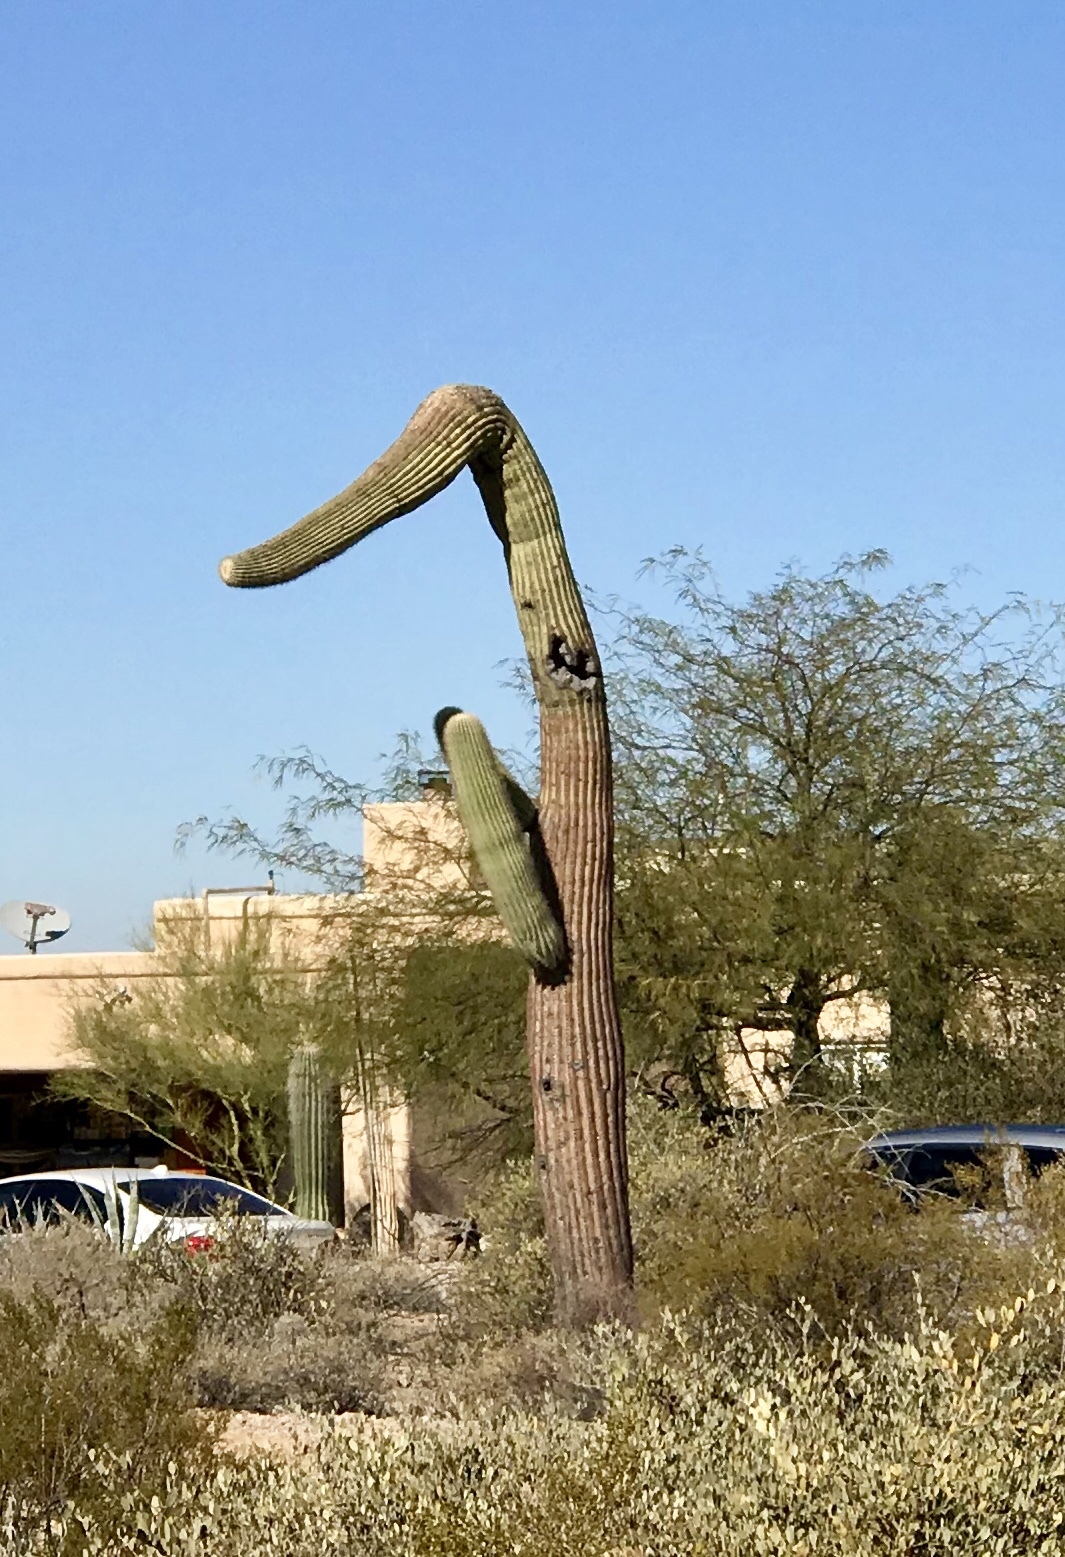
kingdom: Plantae
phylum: Tracheophyta
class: Magnoliopsida
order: Caryophyllales
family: Cactaceae
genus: Carnegiea
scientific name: Carnegiea gigantea
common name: Saguaro
